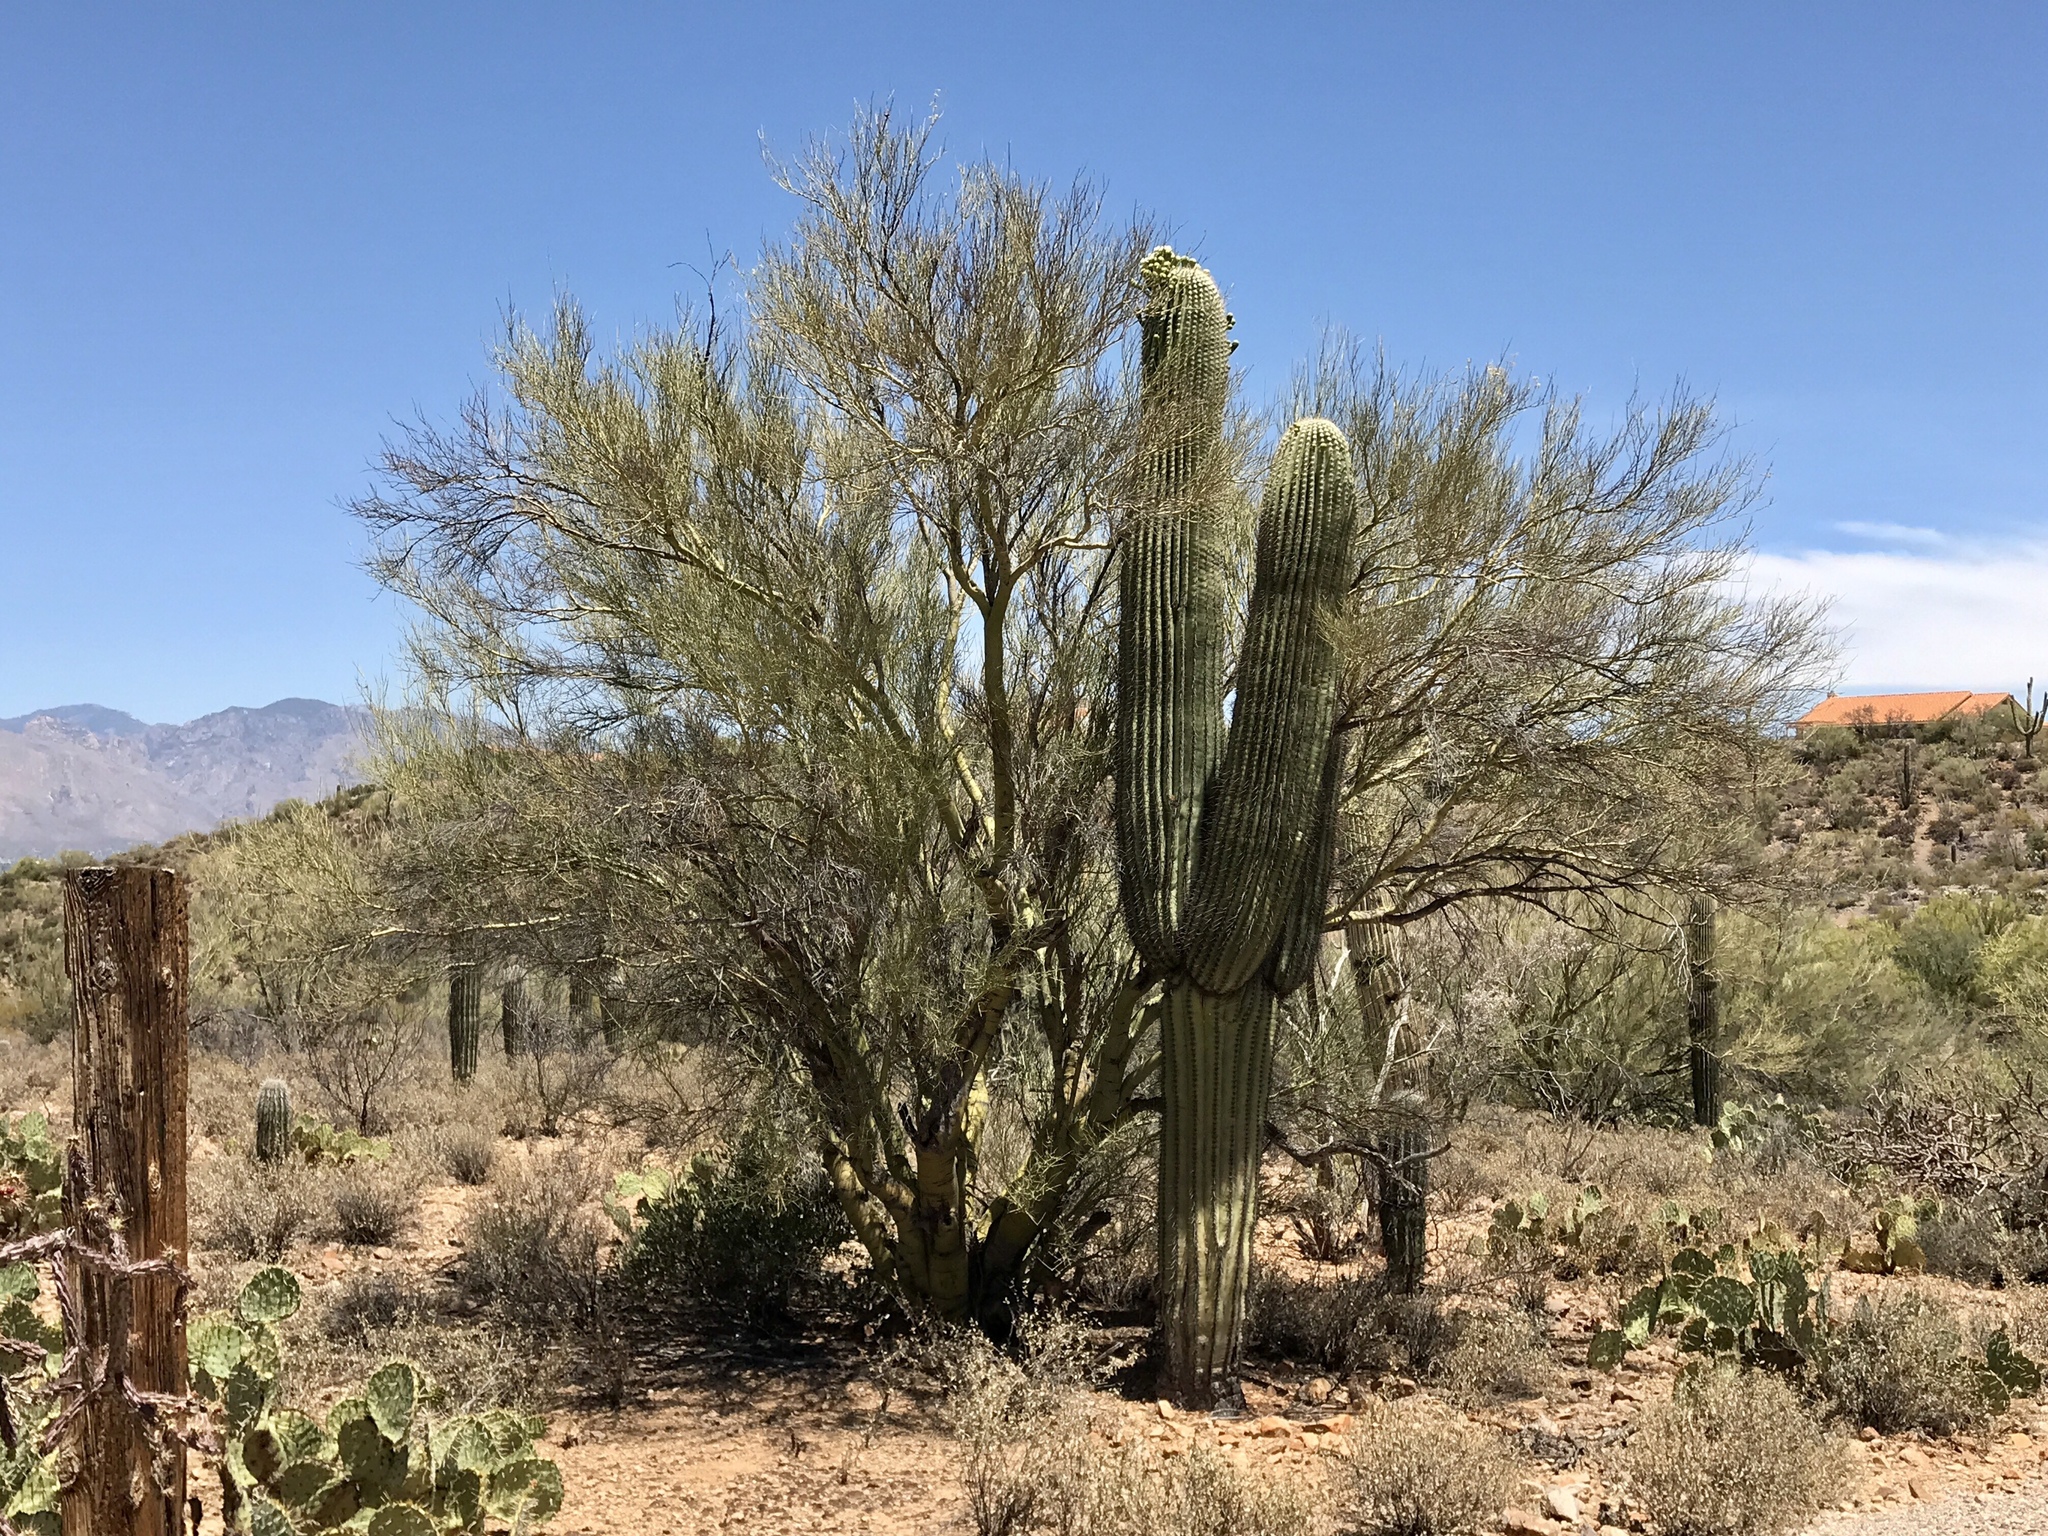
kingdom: Plantae
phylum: Tracheophyta
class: Magnoliopsida
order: Fabales
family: Fabaceae
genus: Parkinsonia
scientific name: Parkinsonia microphylla
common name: Yellow paloverde
